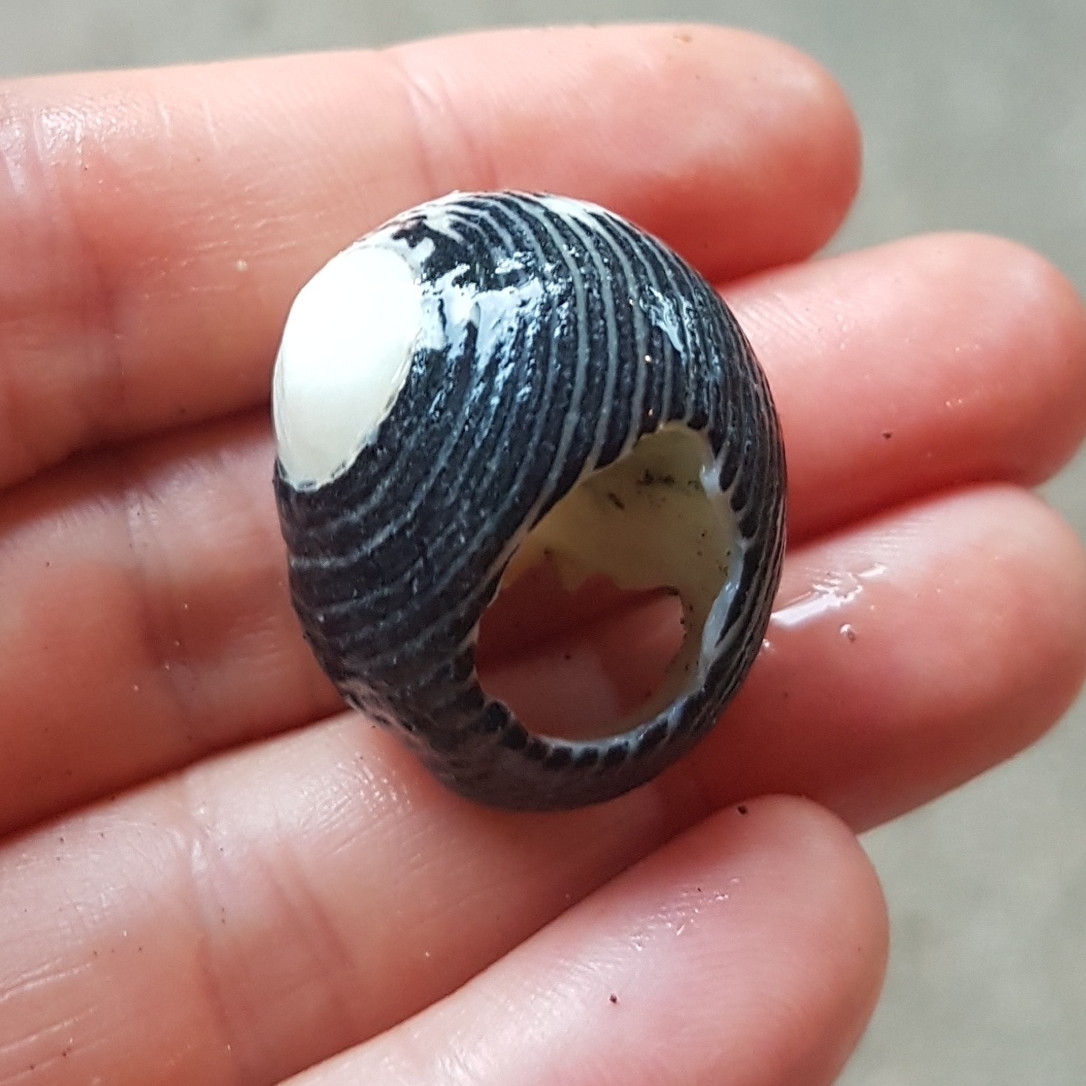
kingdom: Animalia
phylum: Mollusca
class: Gastropoda
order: Cycloneritida
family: Neritidae
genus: Nerita
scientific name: Nerita scabricosta
